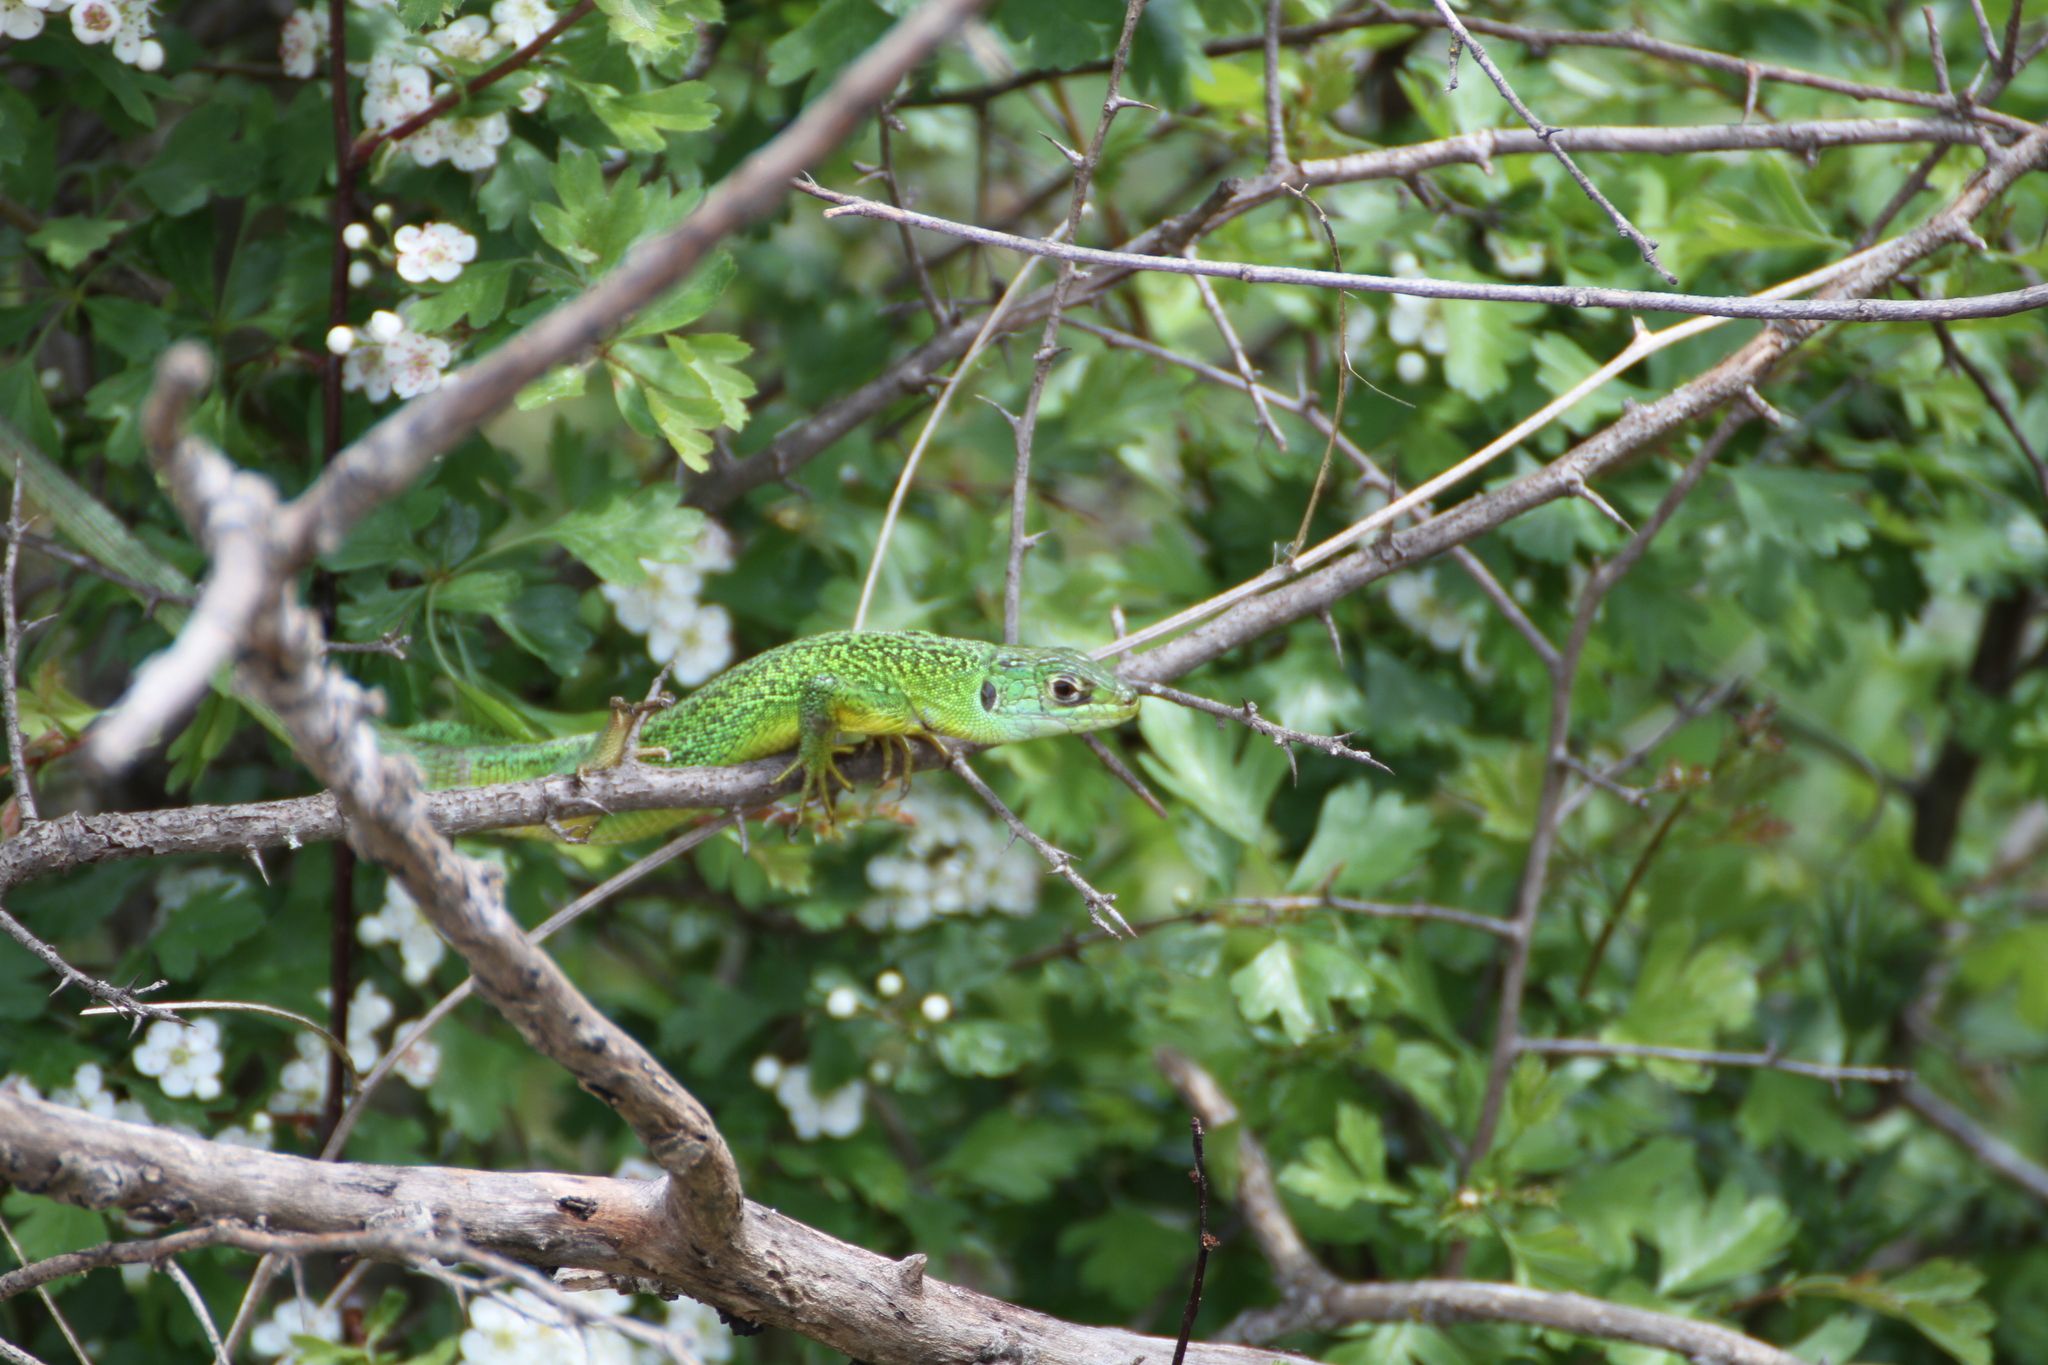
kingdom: Animalia
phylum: Chordata
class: Squamata
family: Lacertidae
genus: Lacerta
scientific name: Lacerta bilineata
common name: Western green lizard
